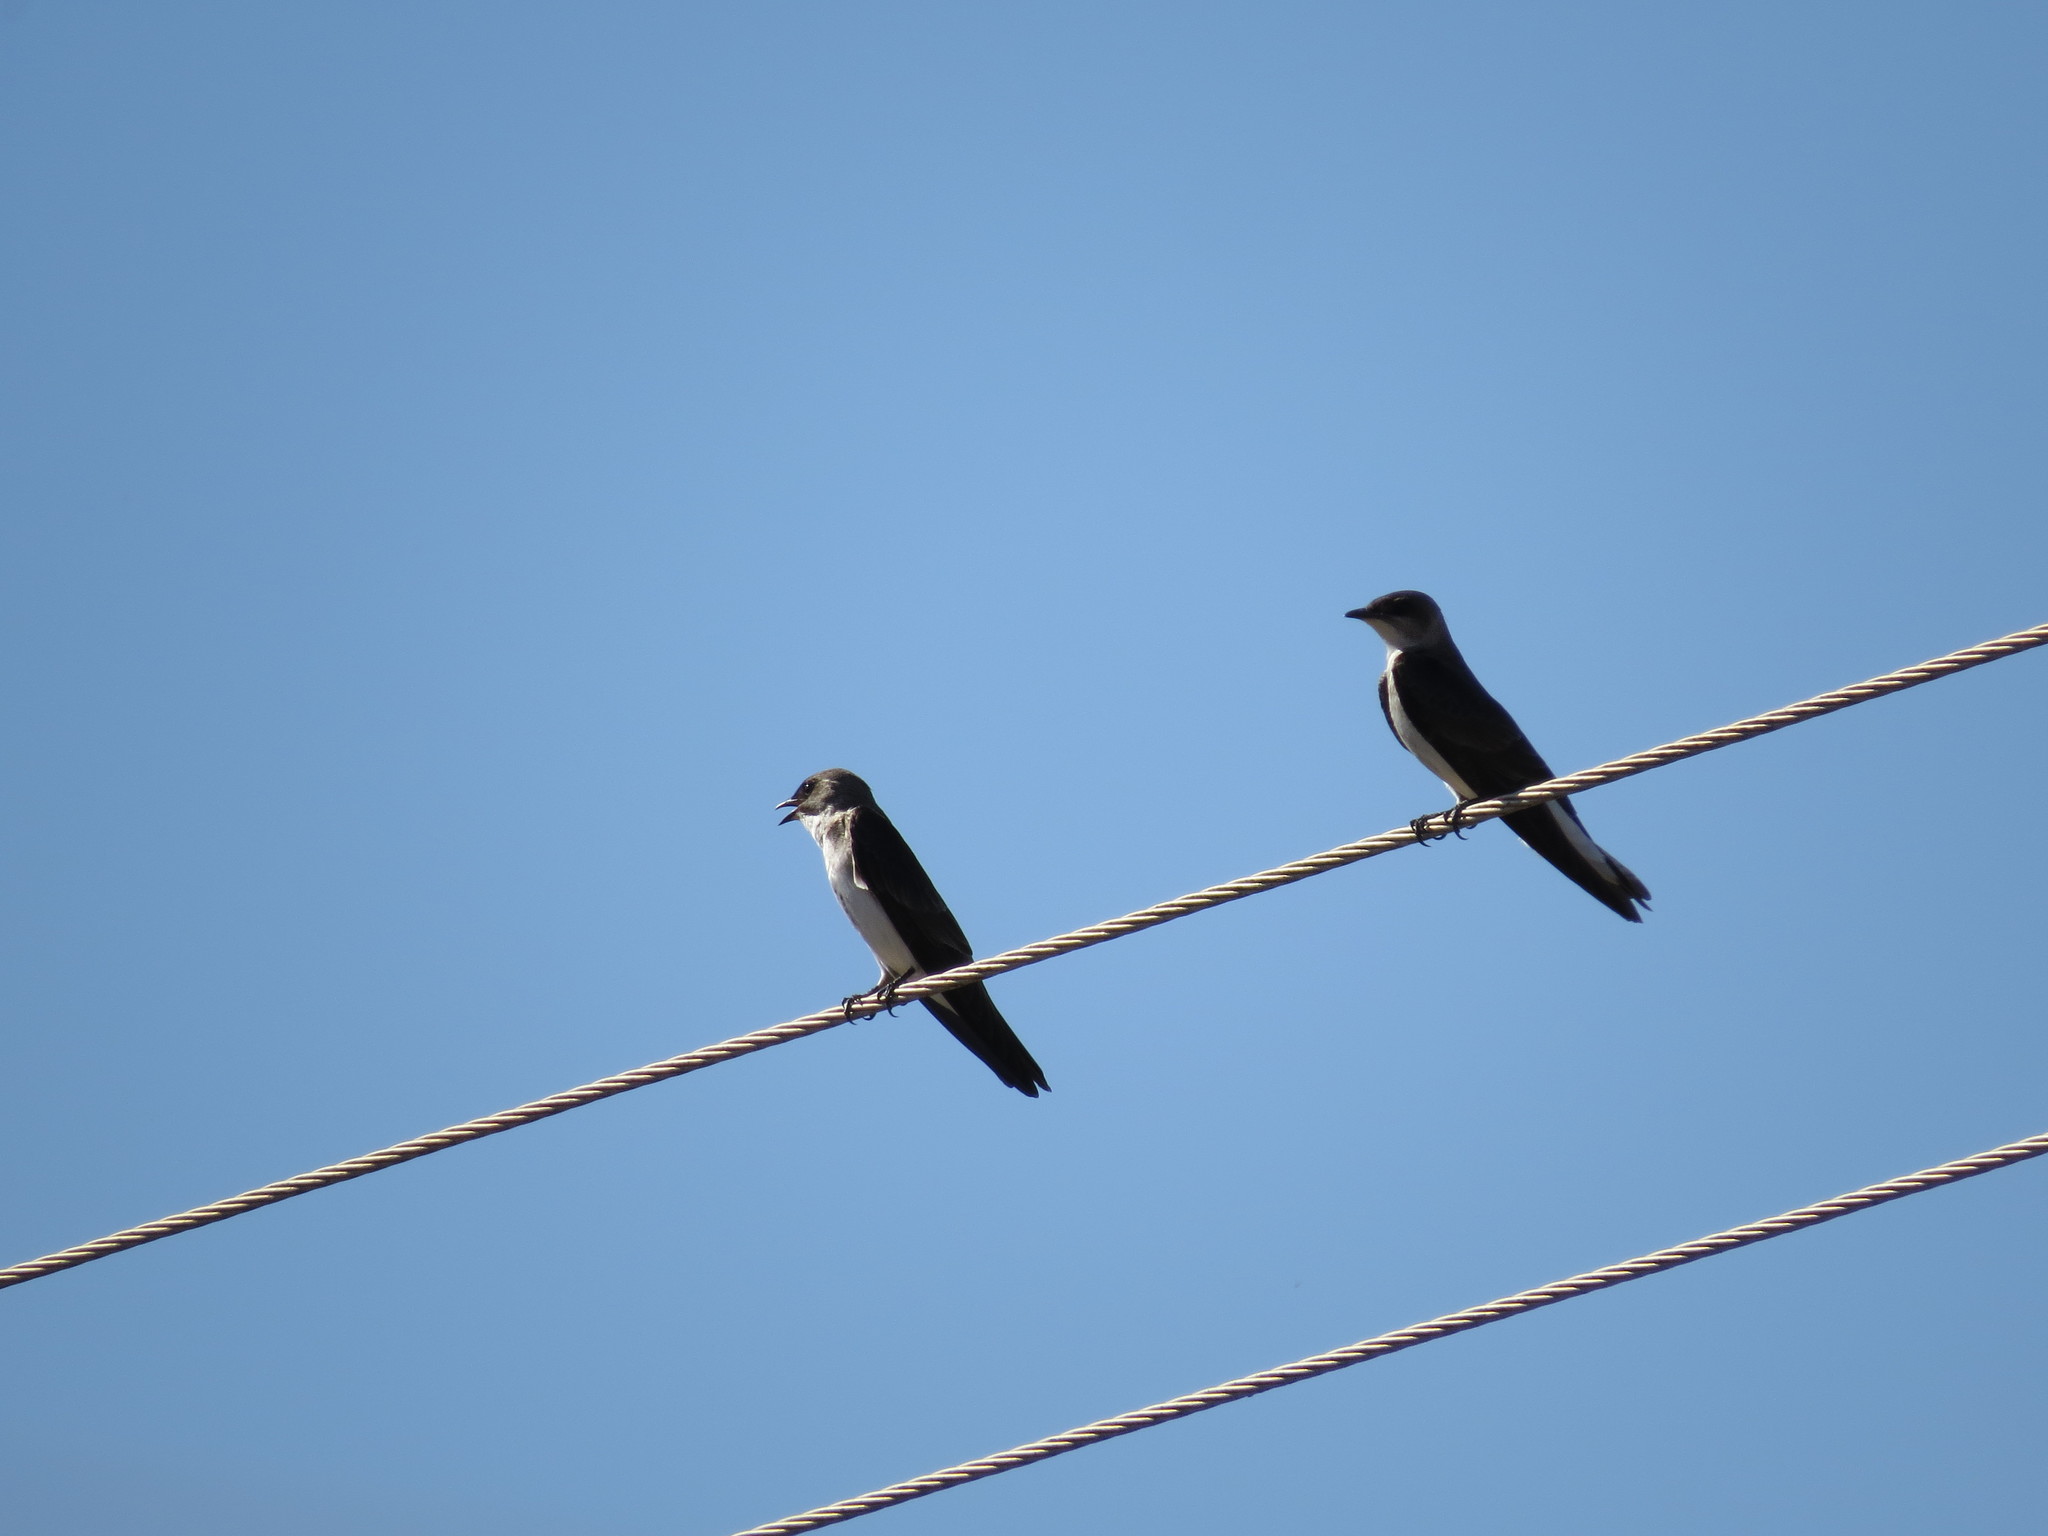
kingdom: Animalia
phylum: Chordata
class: Aves
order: Passeriformes
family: Hirundinidae
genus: Progne
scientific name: Progne
